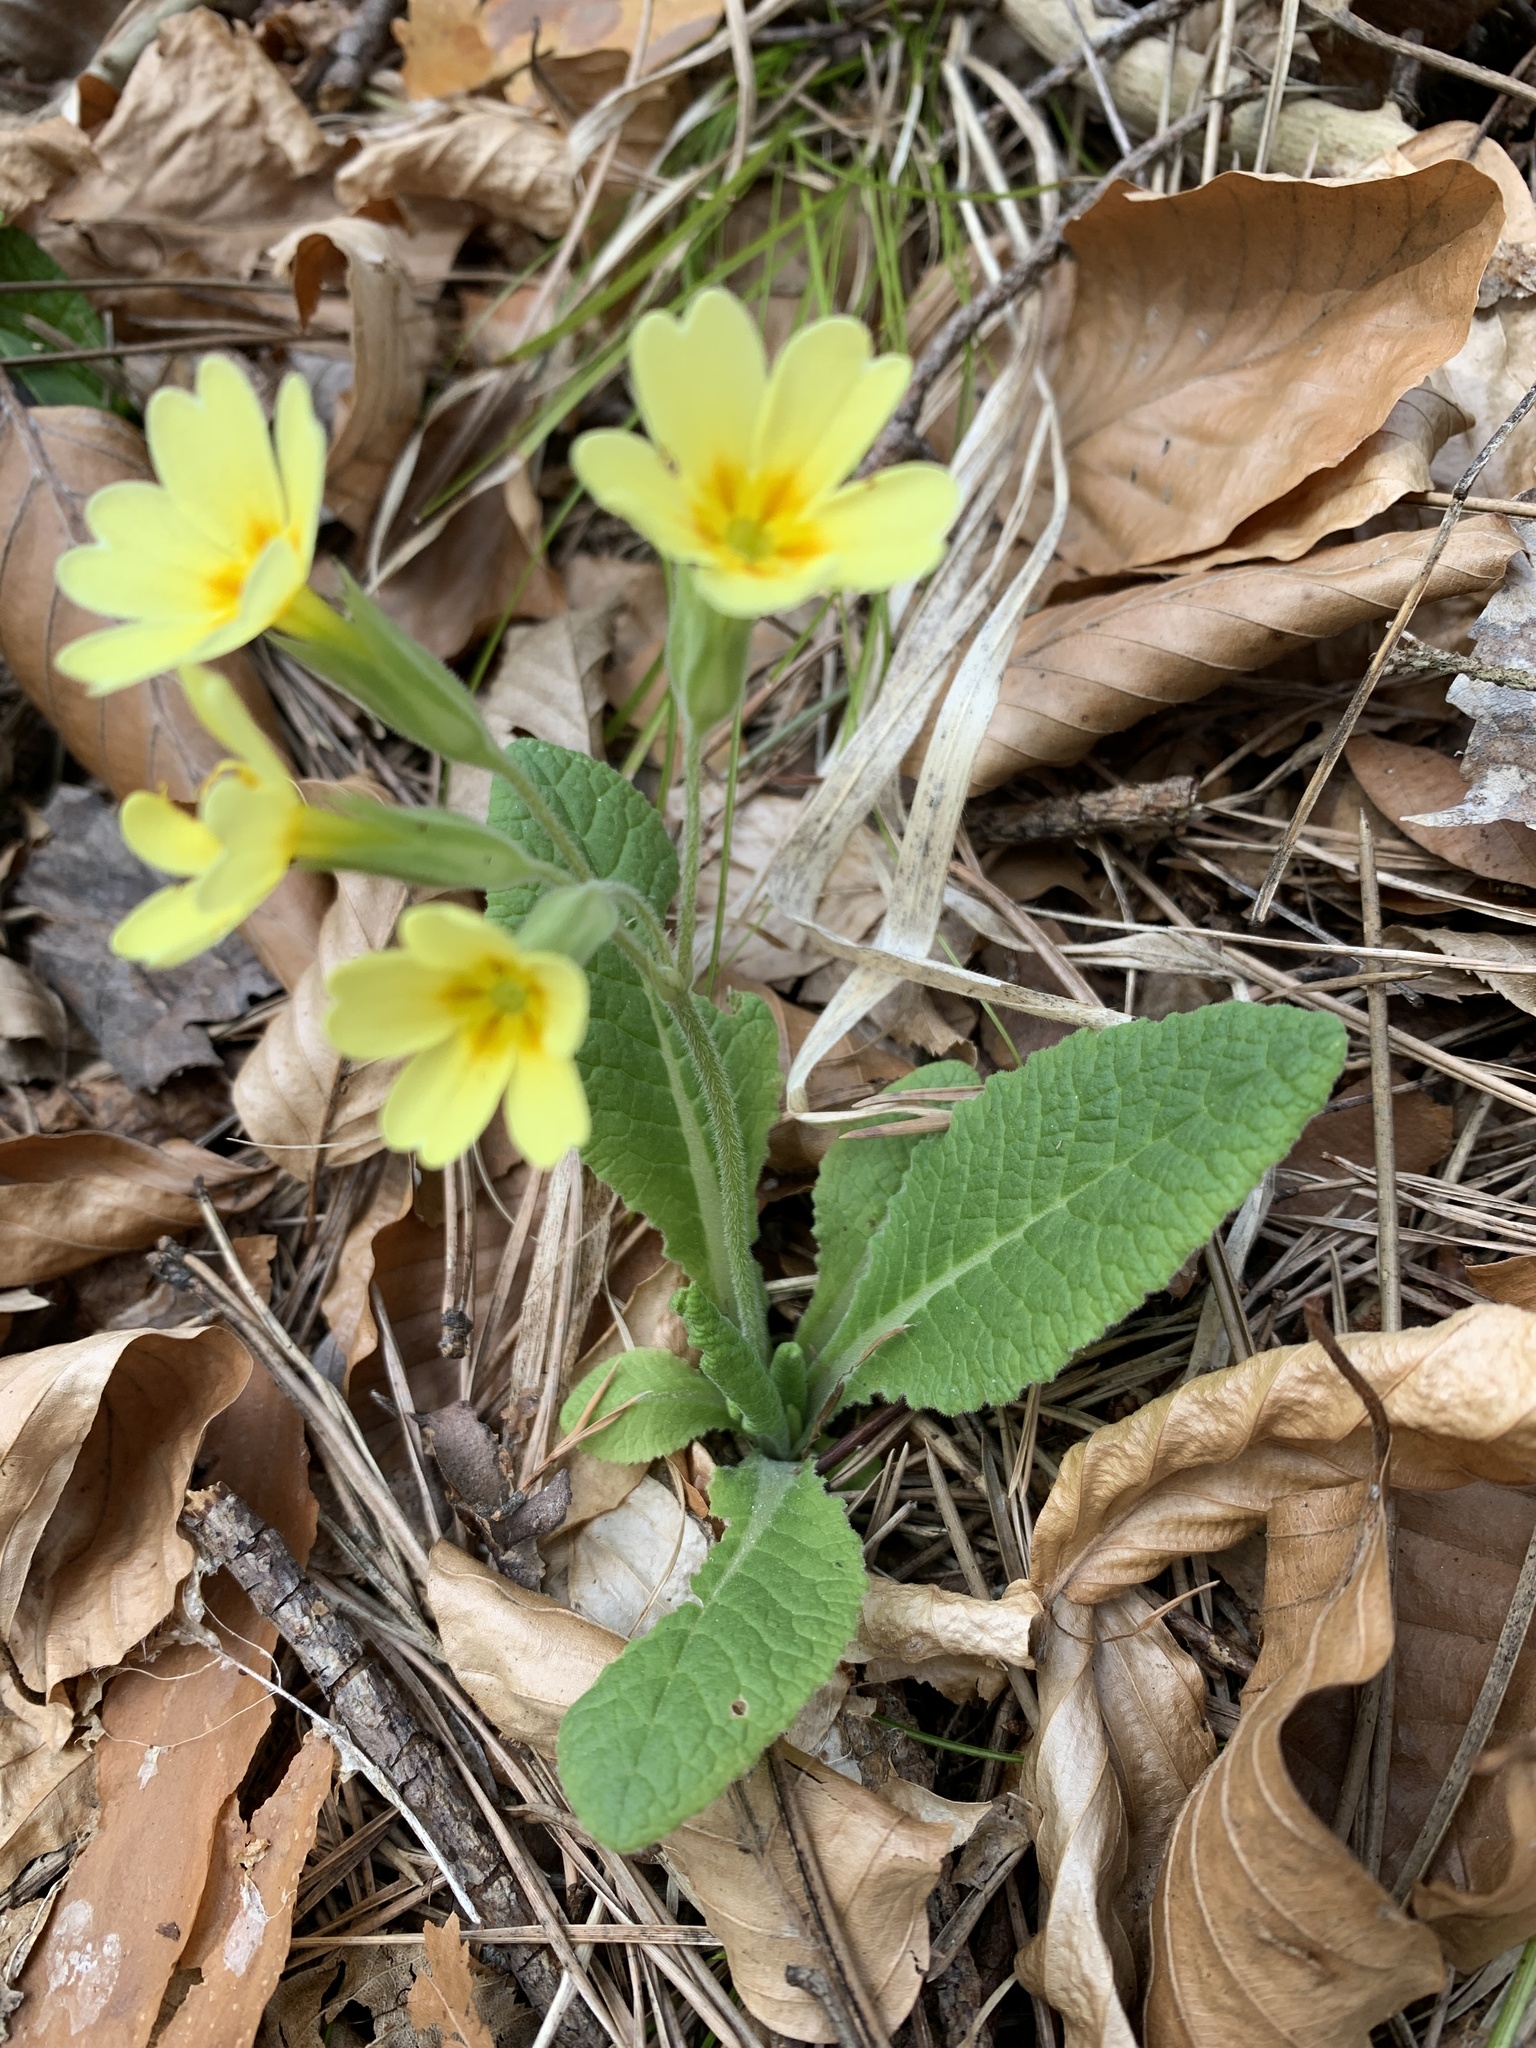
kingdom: Plantae
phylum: Tracheophyta
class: Magnoliopsida
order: Ericales
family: Primulaceae
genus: Primula
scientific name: Primula elatior
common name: Oxlip
